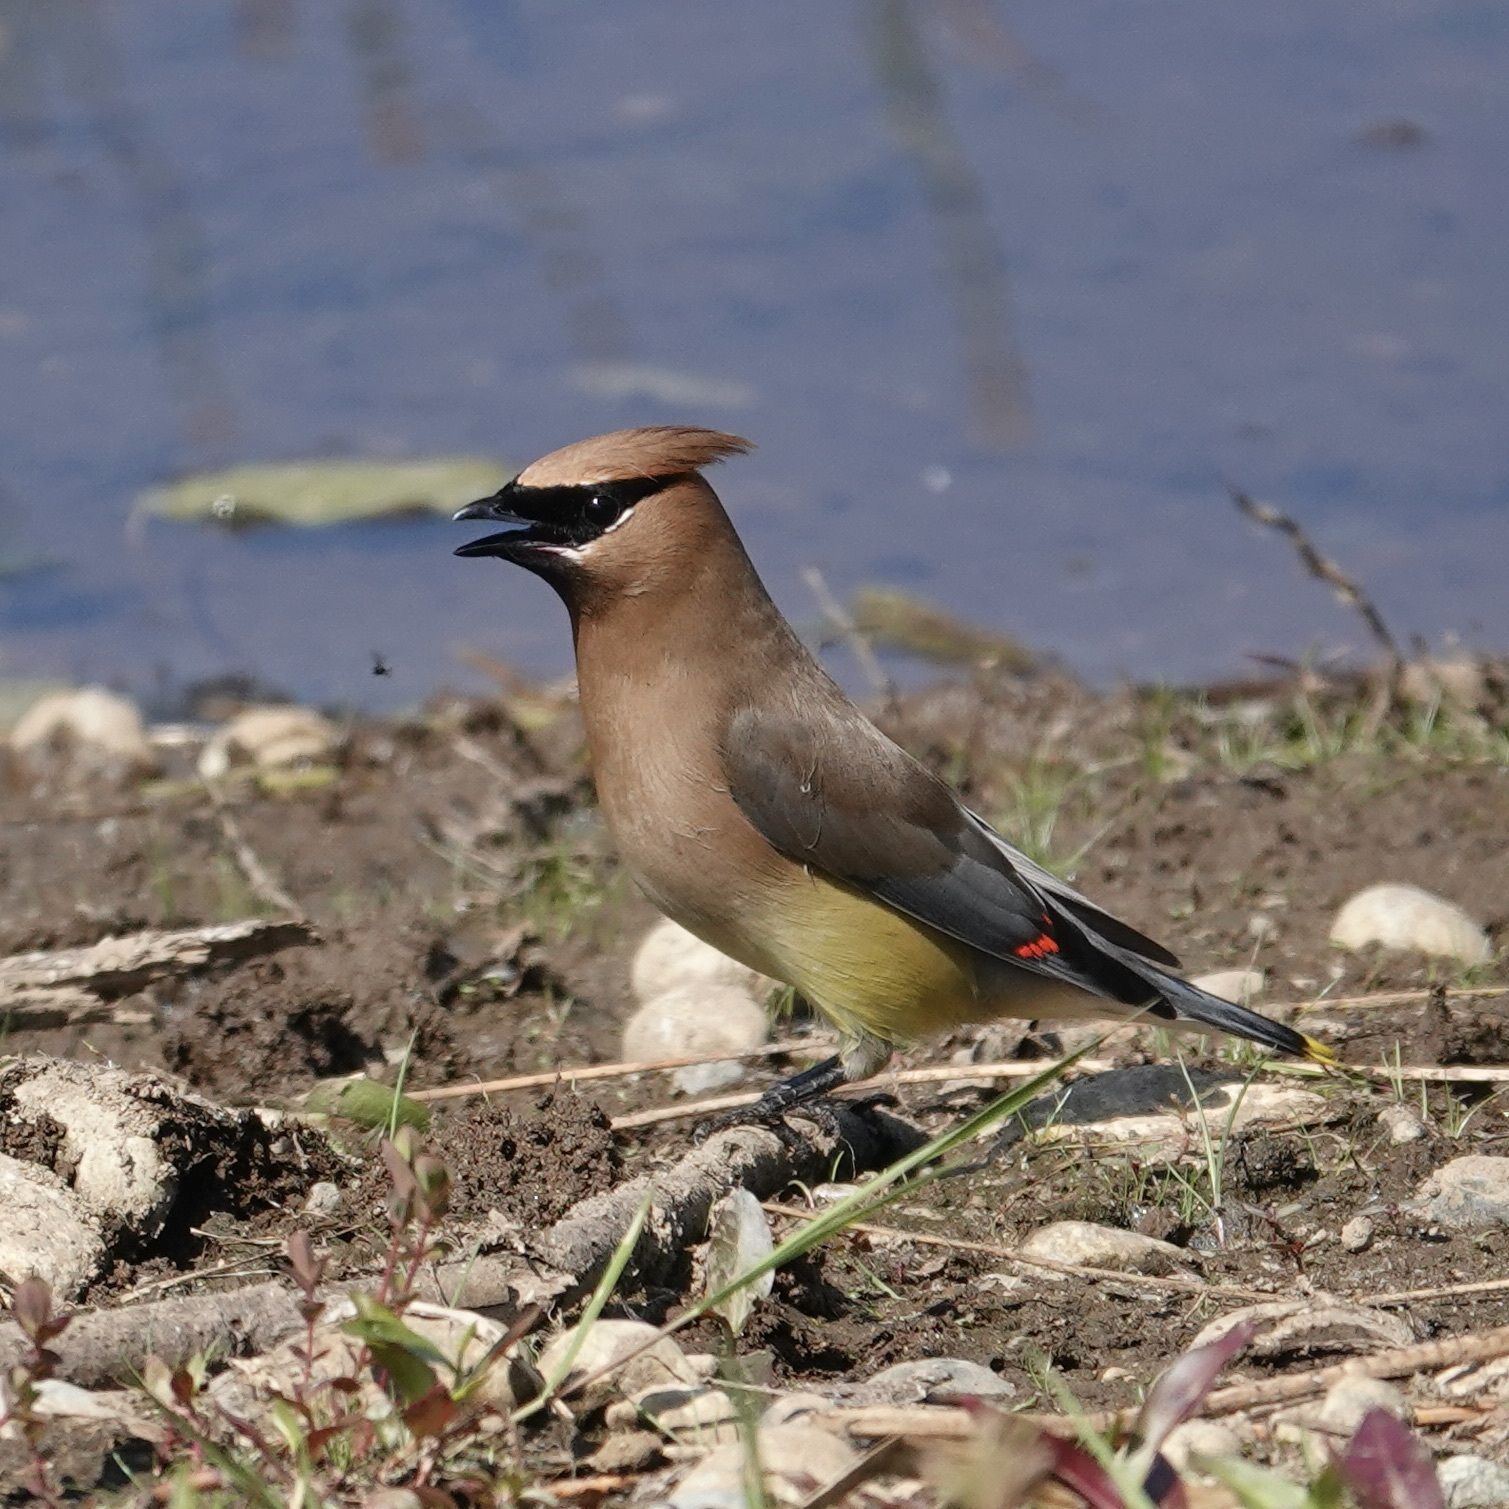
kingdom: Animalia
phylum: Chordata
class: Aves
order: Passeriformes
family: Bombycillidae
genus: Bombycilla
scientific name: Bombycilla cedrorum
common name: Cedar waxwing
